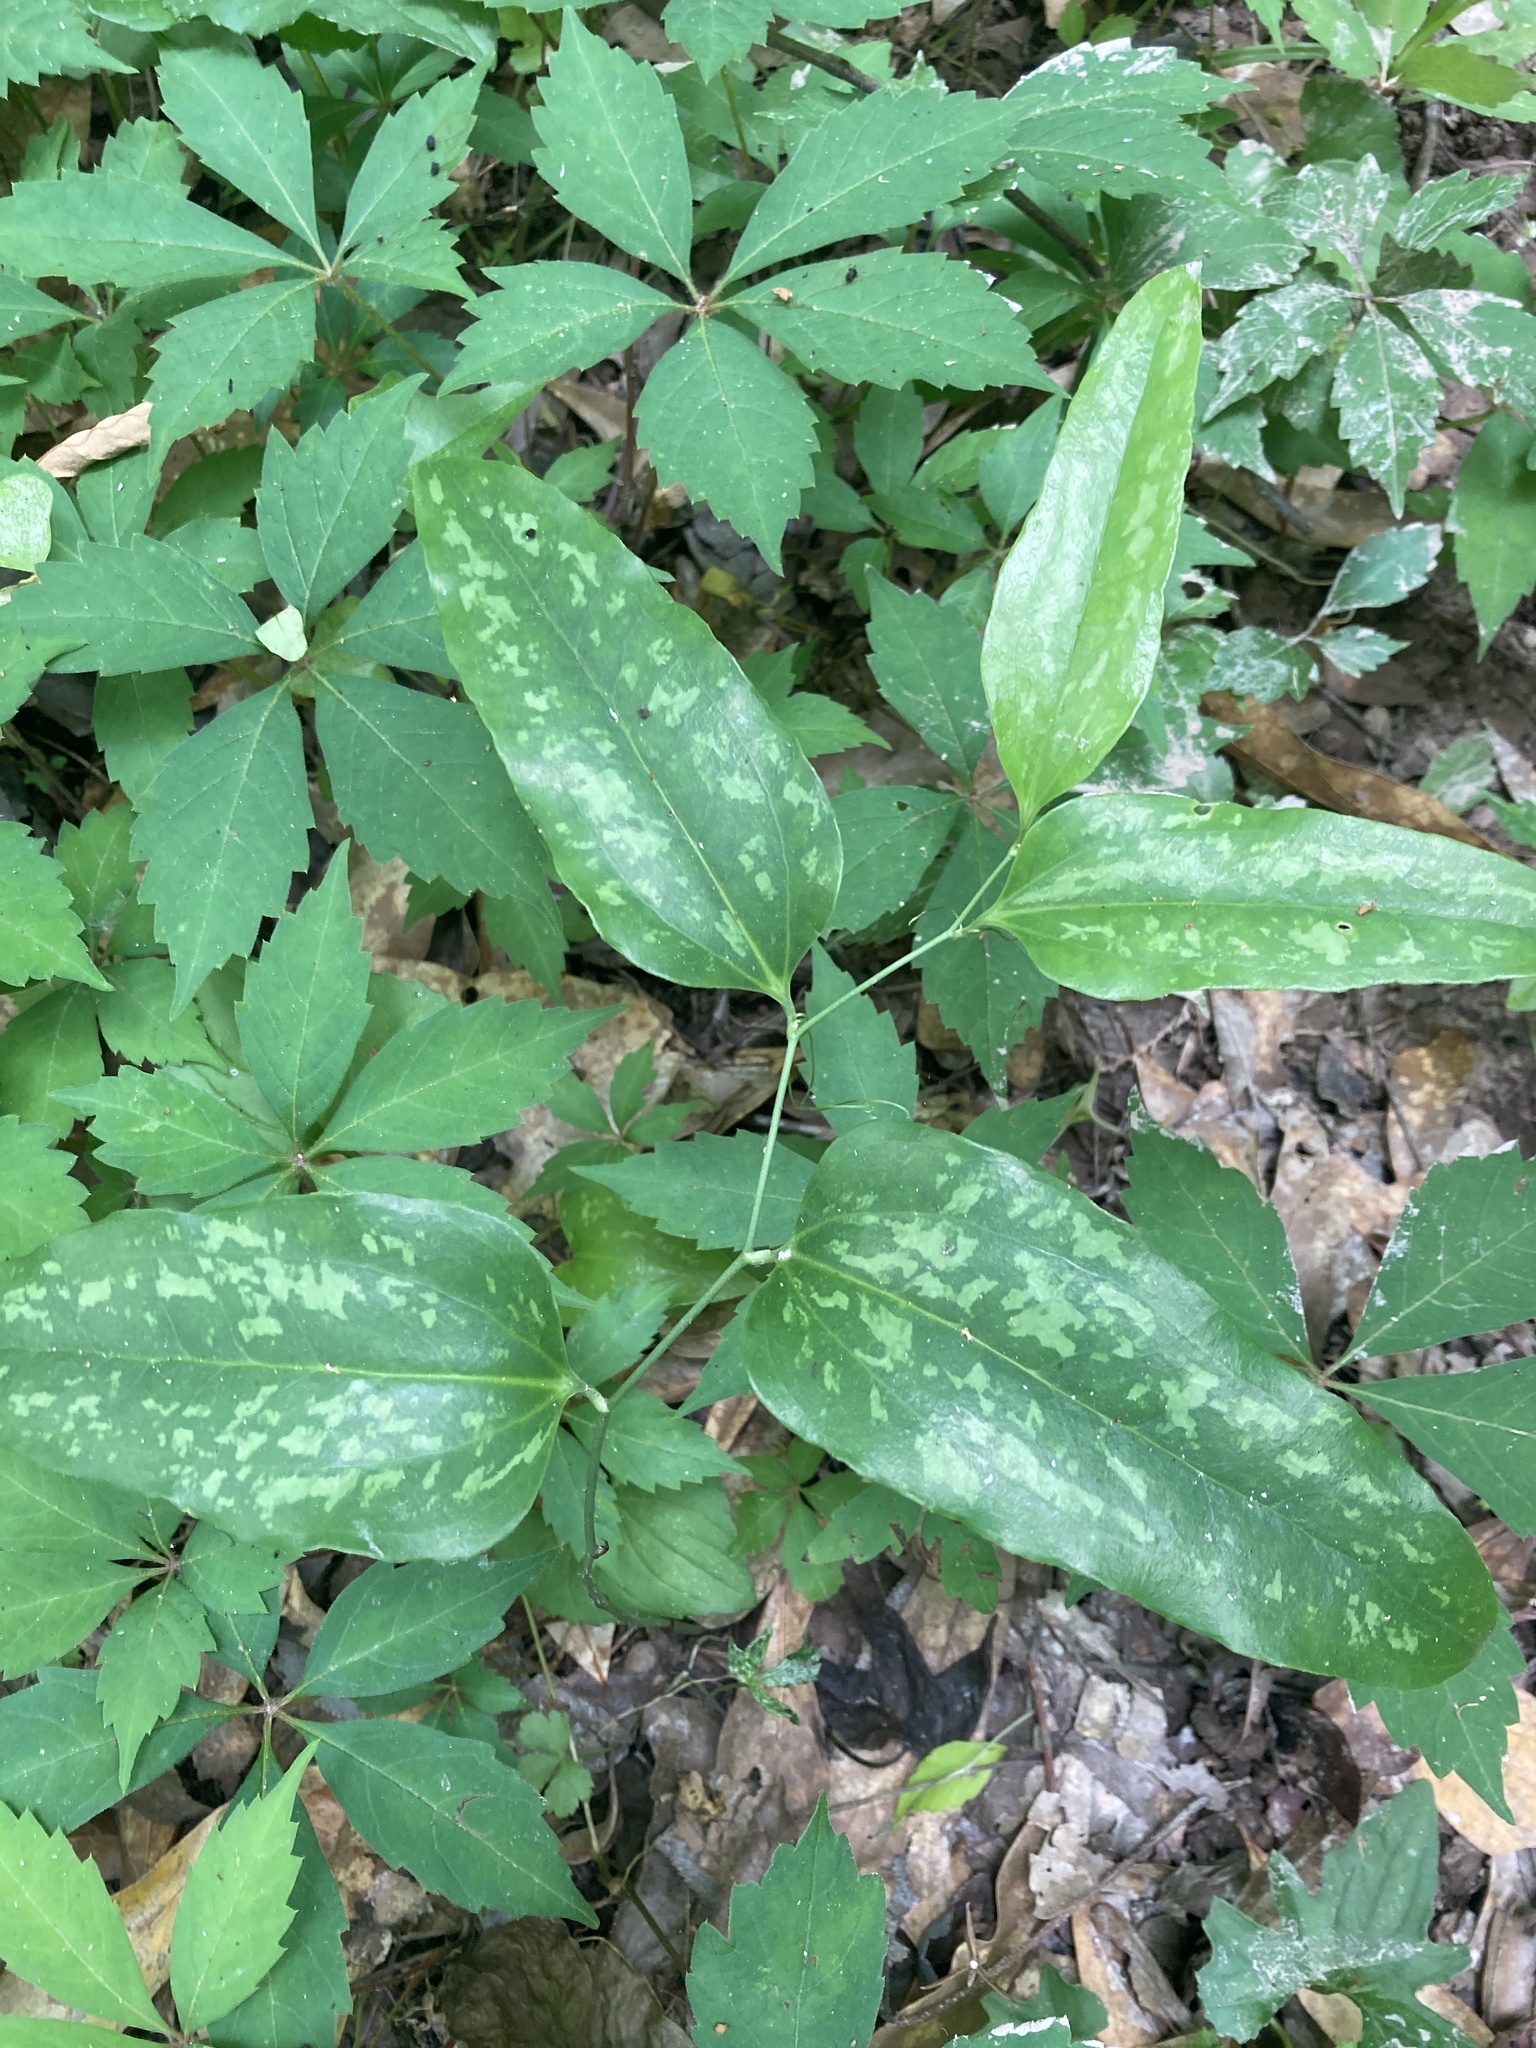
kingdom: Plantae
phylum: Tracheophyta
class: Liliopsida
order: Liliales
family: Smilacaceae
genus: Smilax
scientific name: Smilax maritima
